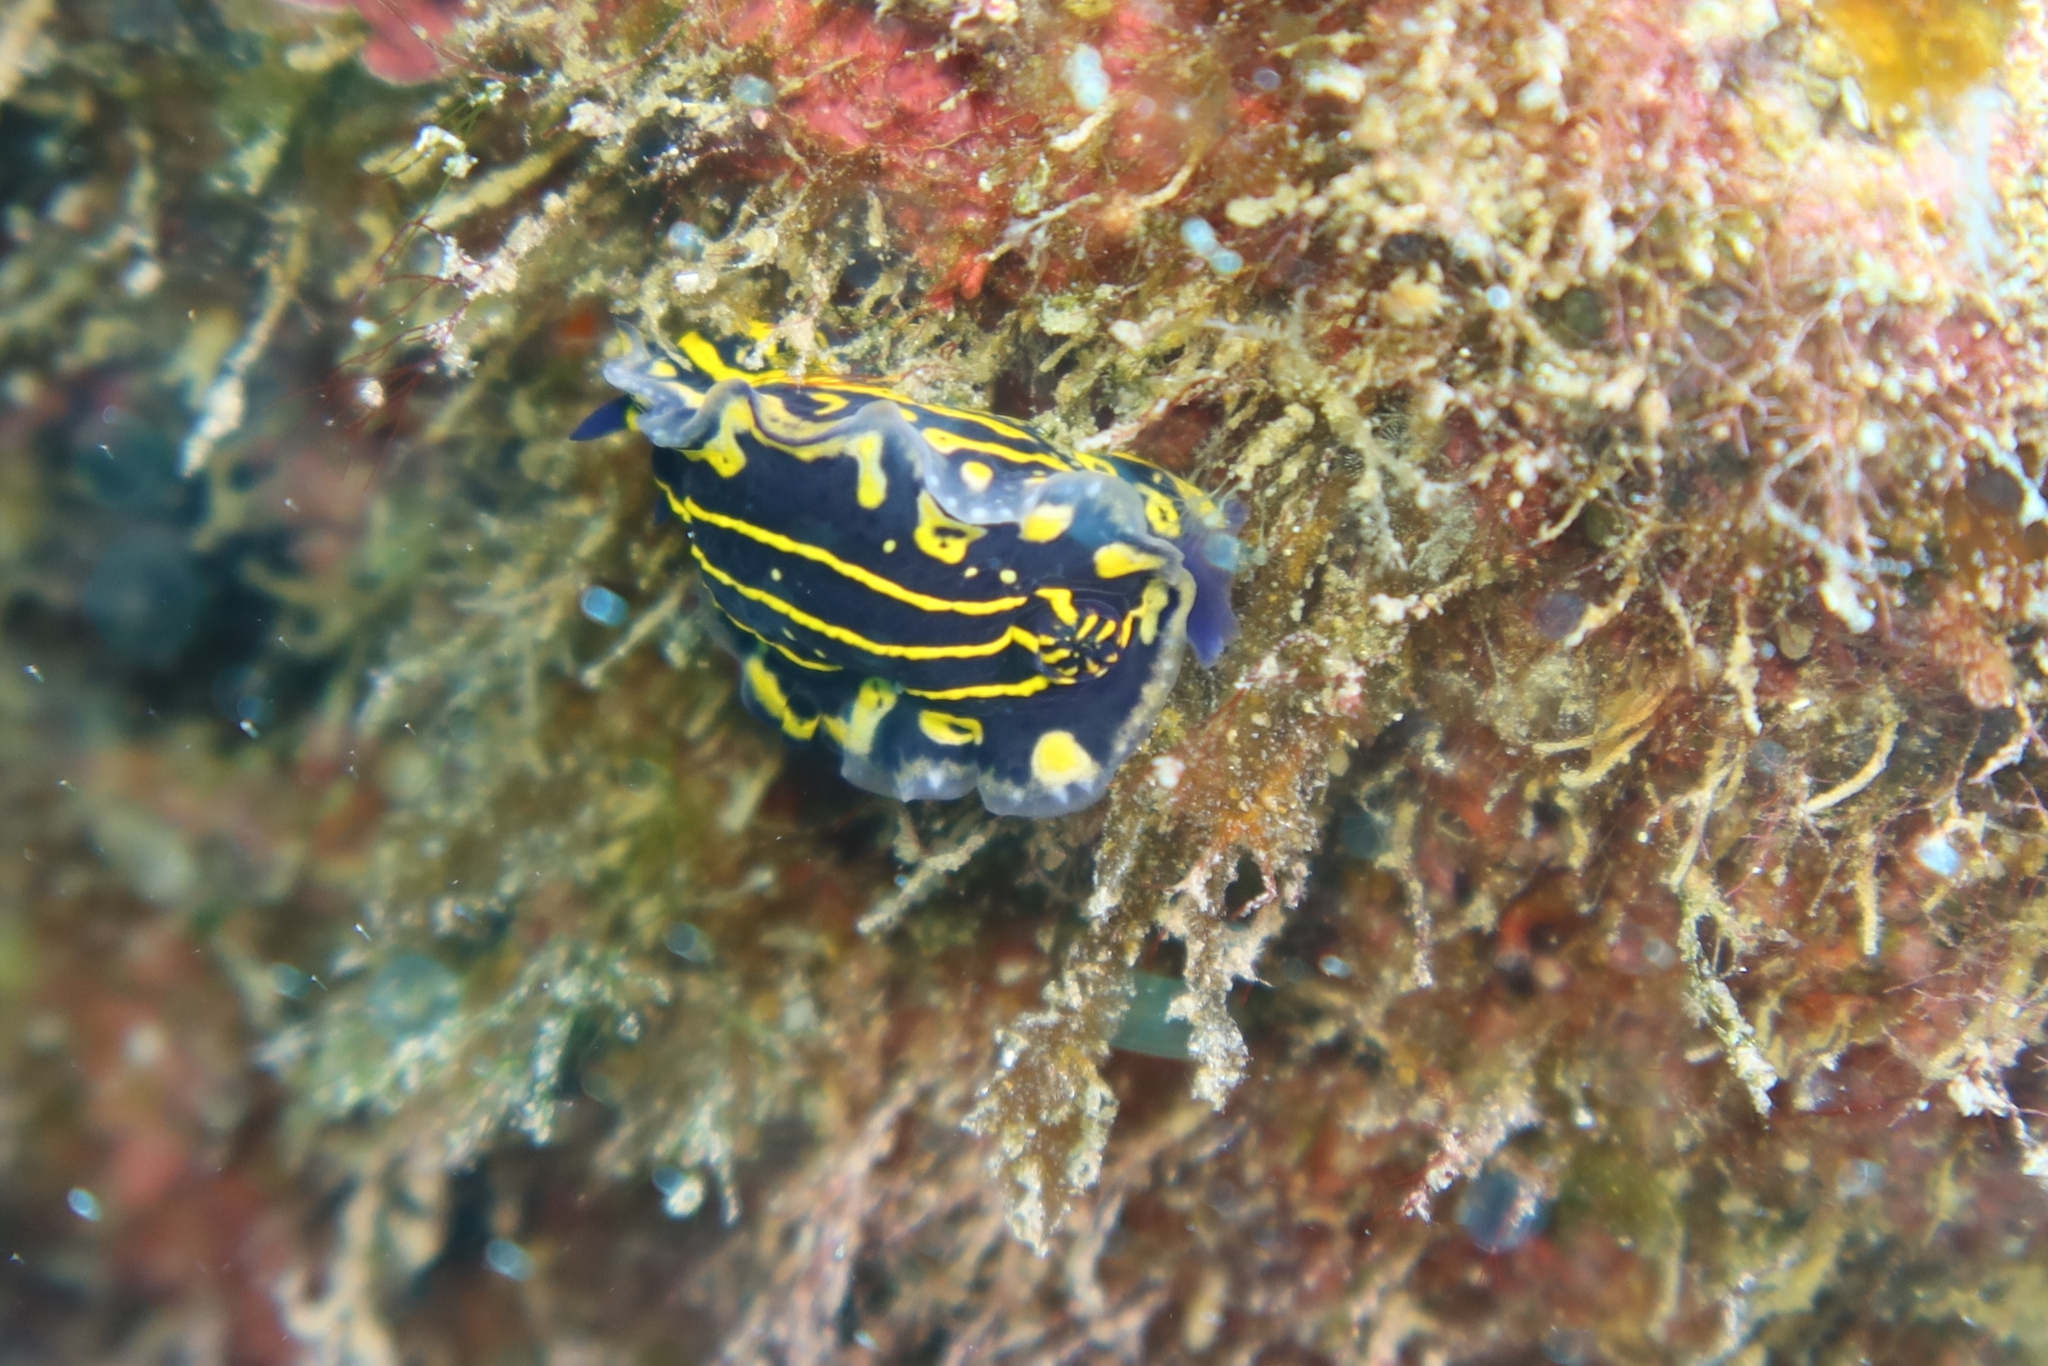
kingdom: Animalia
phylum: Mollusca
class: Gastropoda
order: Nudibranchia
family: Chromodorididae
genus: Felimare
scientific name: Felimare picta
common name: Giant doris
